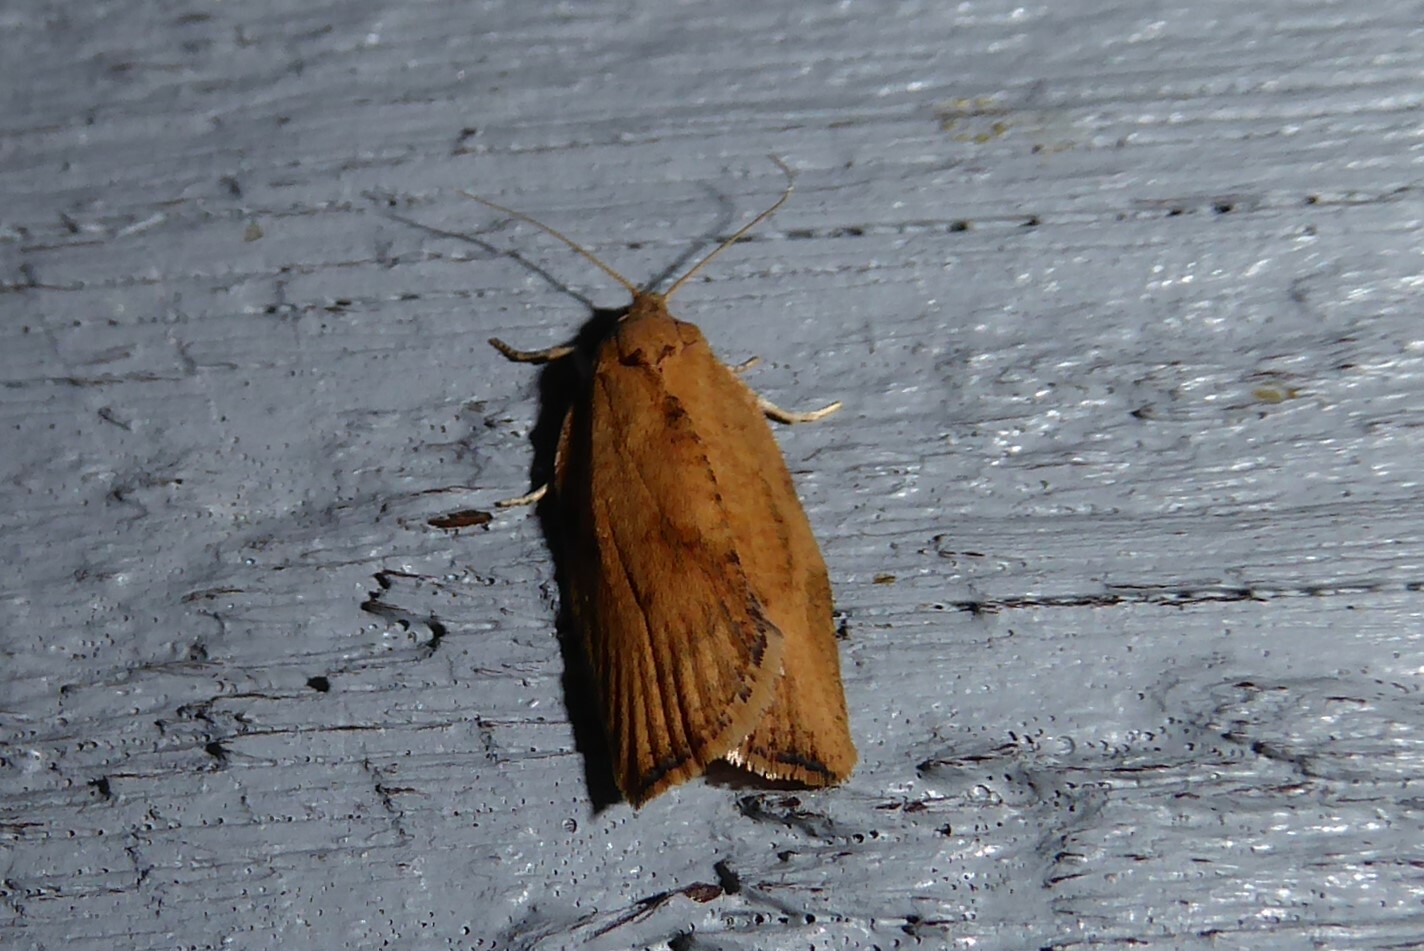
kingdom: Animalia
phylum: Arthropoda
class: Insecta
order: Lepidoptera
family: Tortricidae
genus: Epiphyas
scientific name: Epiphyas postvittana
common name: Light brown apple moth
